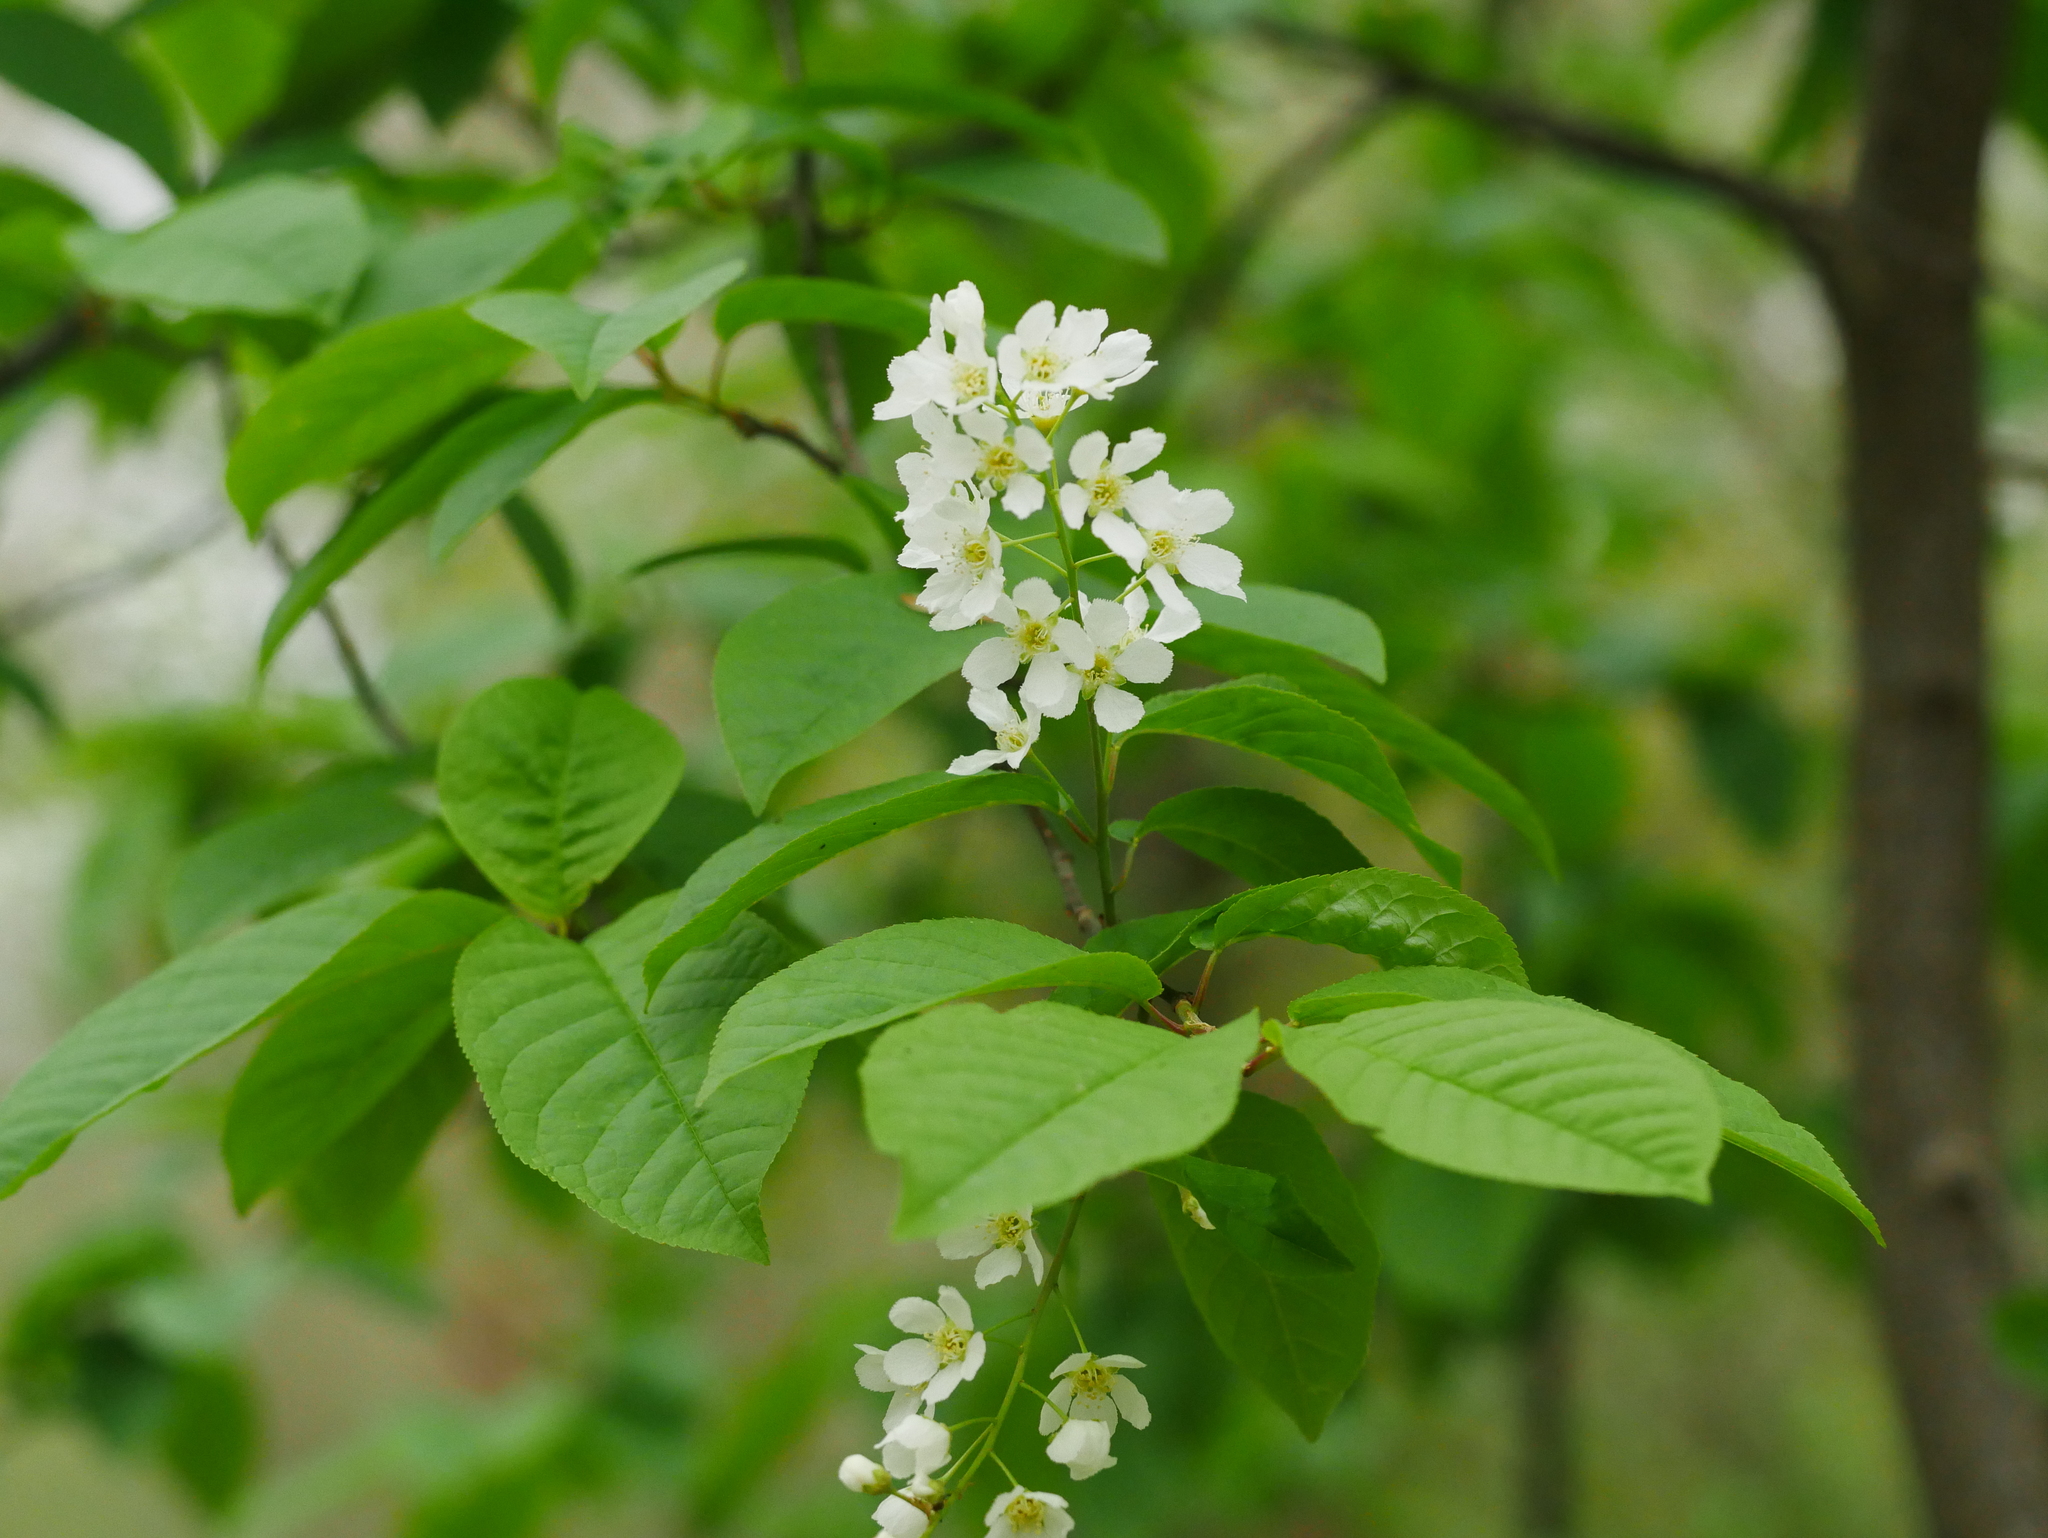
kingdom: Plantae
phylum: Tracheophyta
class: Magnoliopsida
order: Rosales
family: Rosaceae
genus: Prunus
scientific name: Prunus padus
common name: Bird cherry
